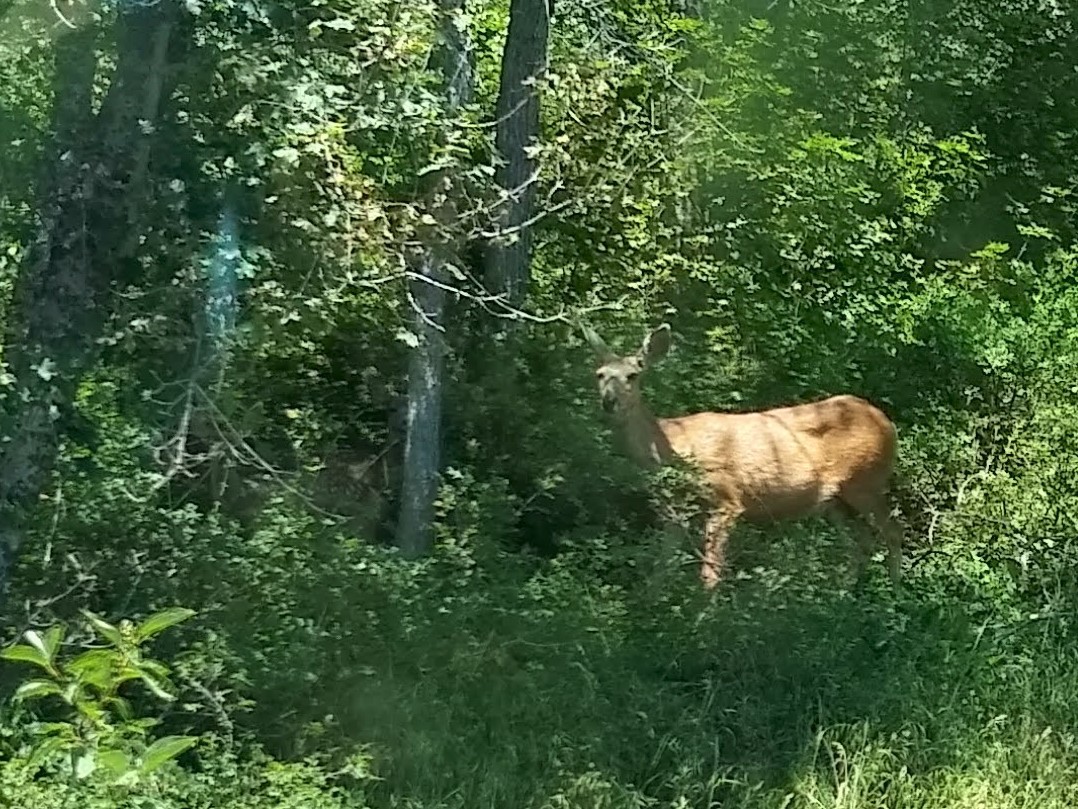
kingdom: Animalia
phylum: Chordata
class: Mammalia
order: Artiodactyla
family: Cervidae
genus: Odocoileus
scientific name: Odocoileus hemionus
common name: Mule deer
